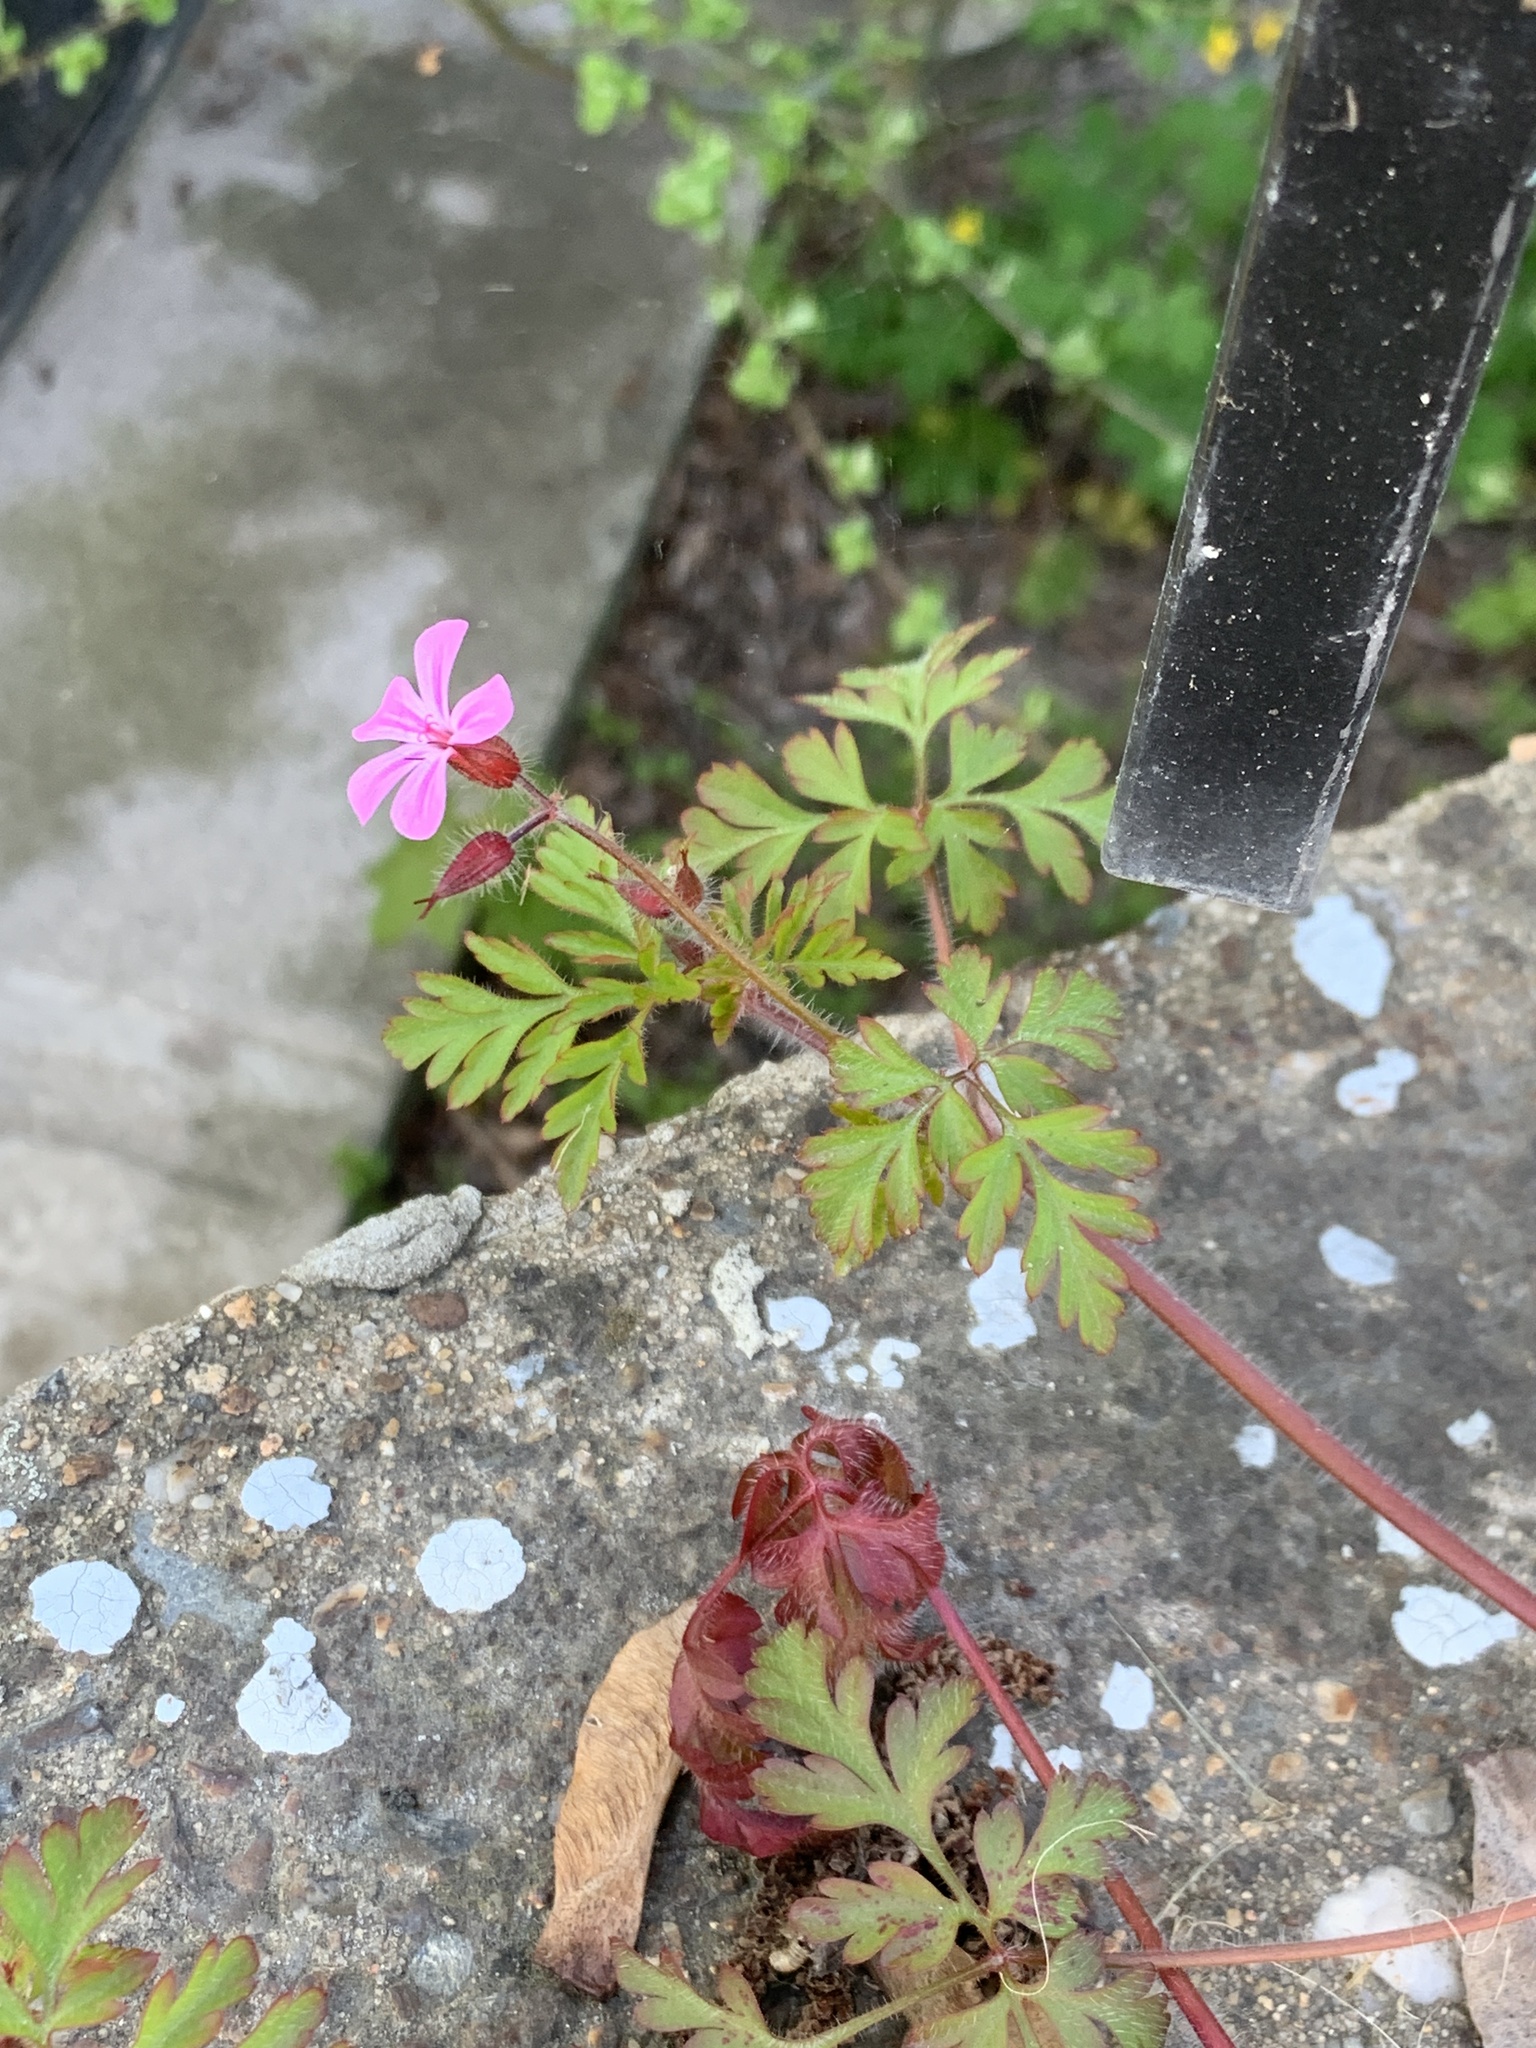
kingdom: Plantae
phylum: Tracheophyta
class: Magnoliopsida
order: Geraniales
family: Geraniaceae
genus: Geranium
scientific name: Geranium robertianum
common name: Herb-robert
